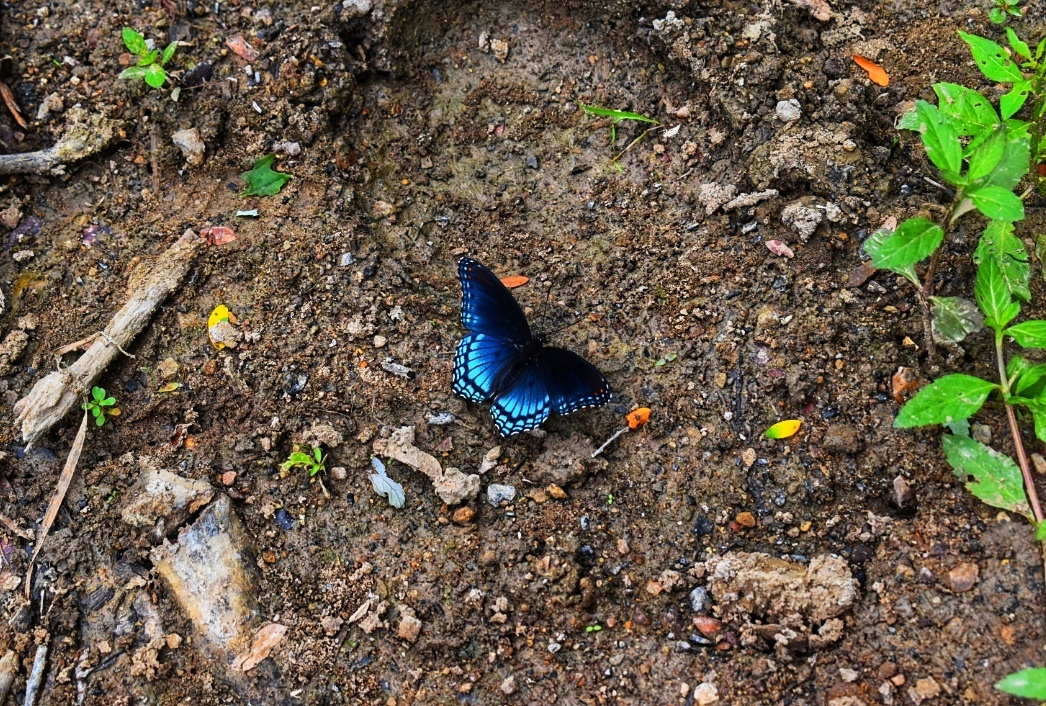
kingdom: Animalia
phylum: Arthropoda
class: Insecta
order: Lepidoptera
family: Nymphalidae
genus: Limenitis
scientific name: Limenitis arthemis
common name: Red-spotted admiral
